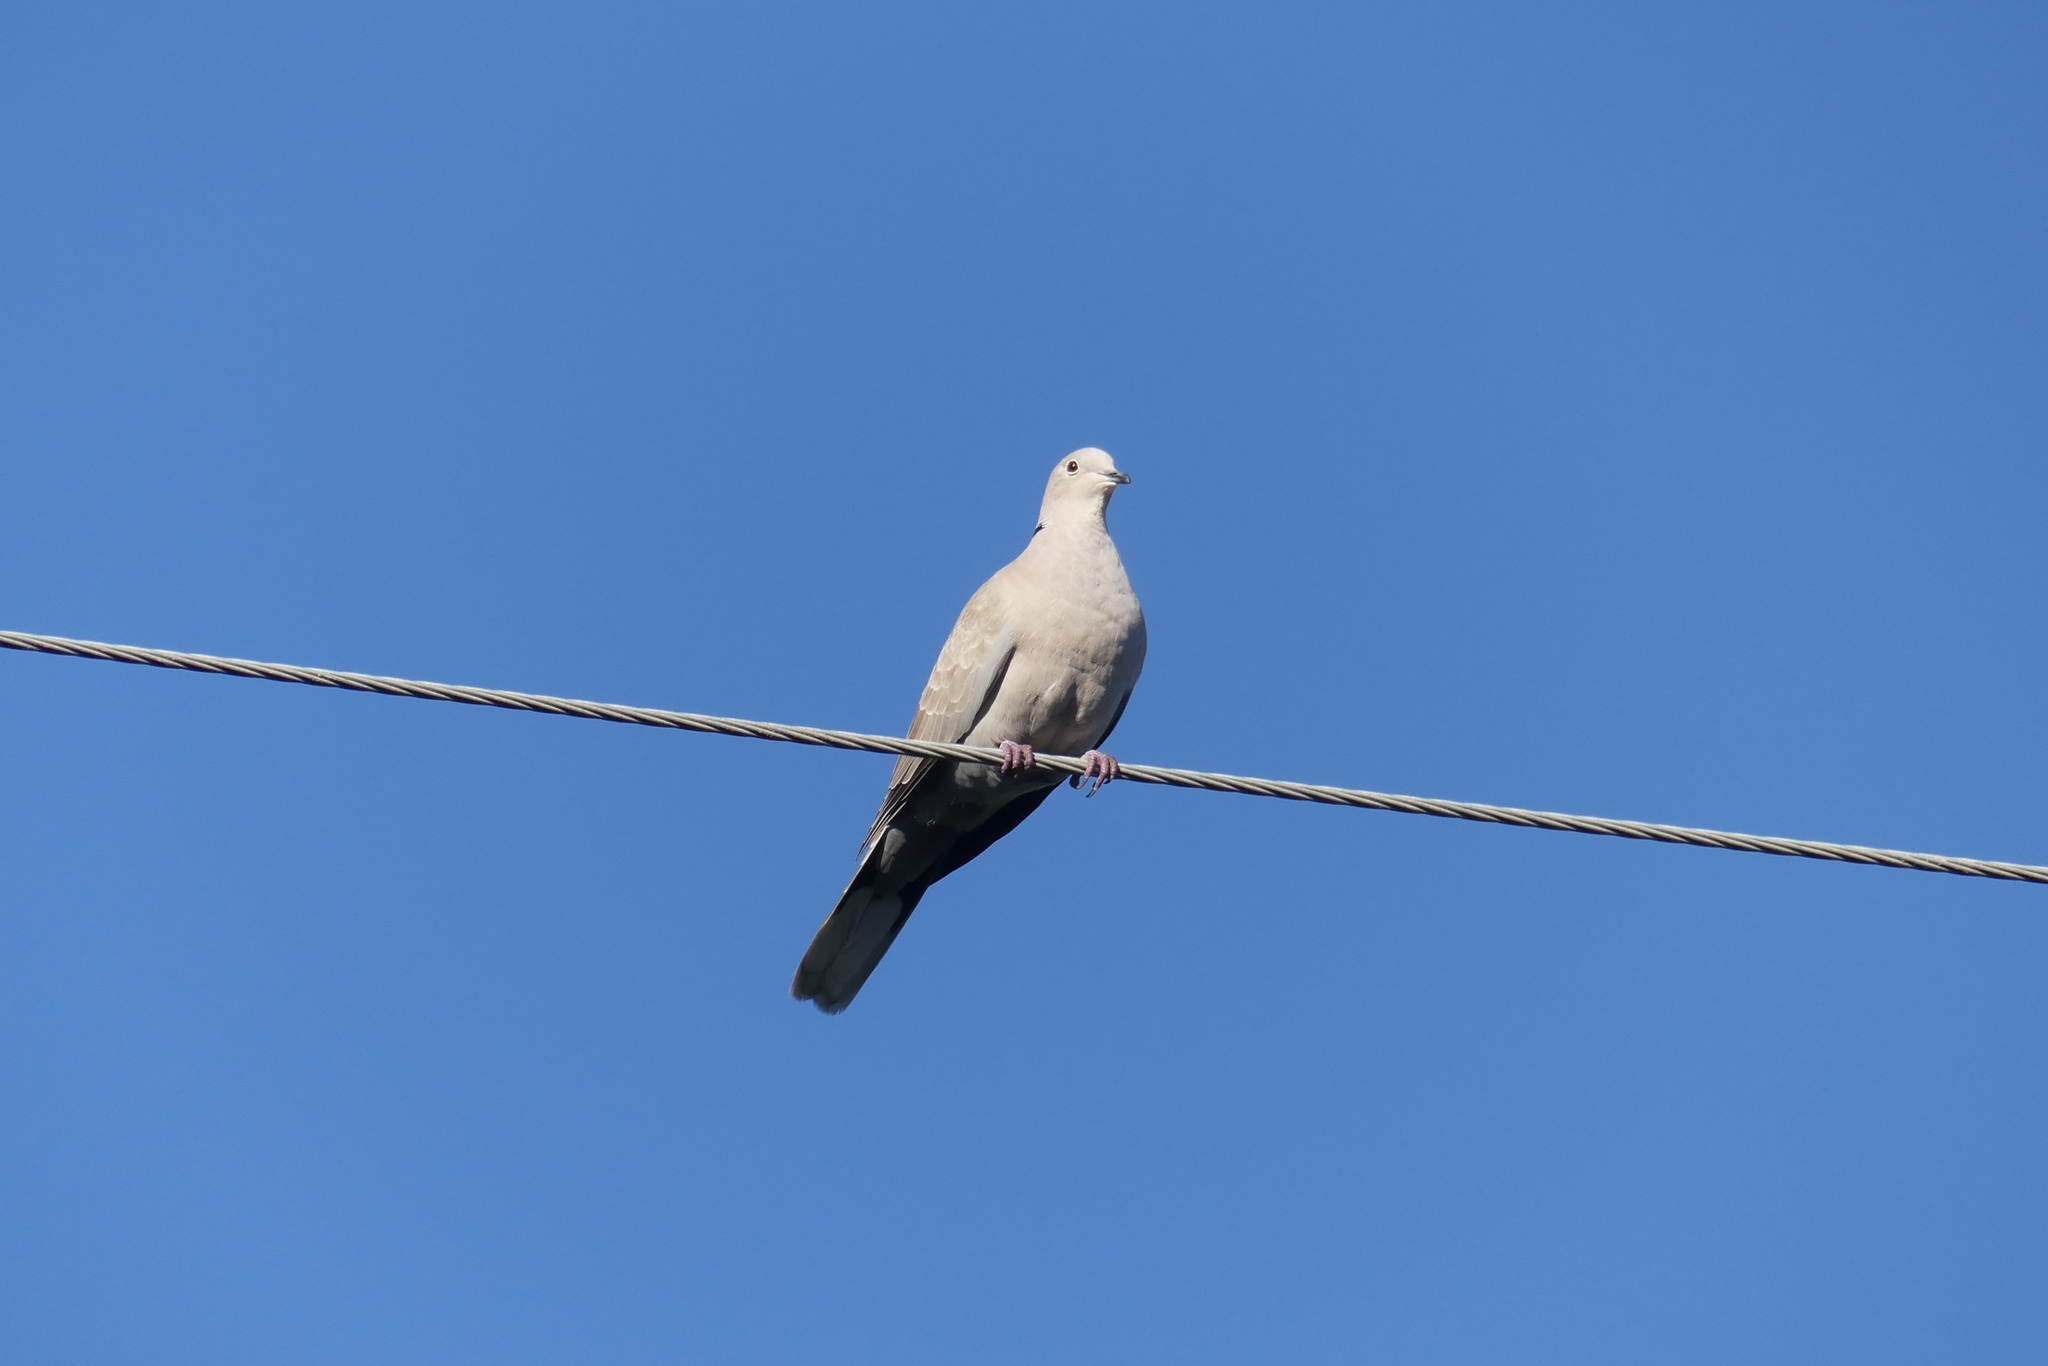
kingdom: Animalia
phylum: Chordata
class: Aves
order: Columbiformes
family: Columbidae
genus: Streptopelia
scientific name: Streptopelia decaocto
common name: Eurasian collared dove
